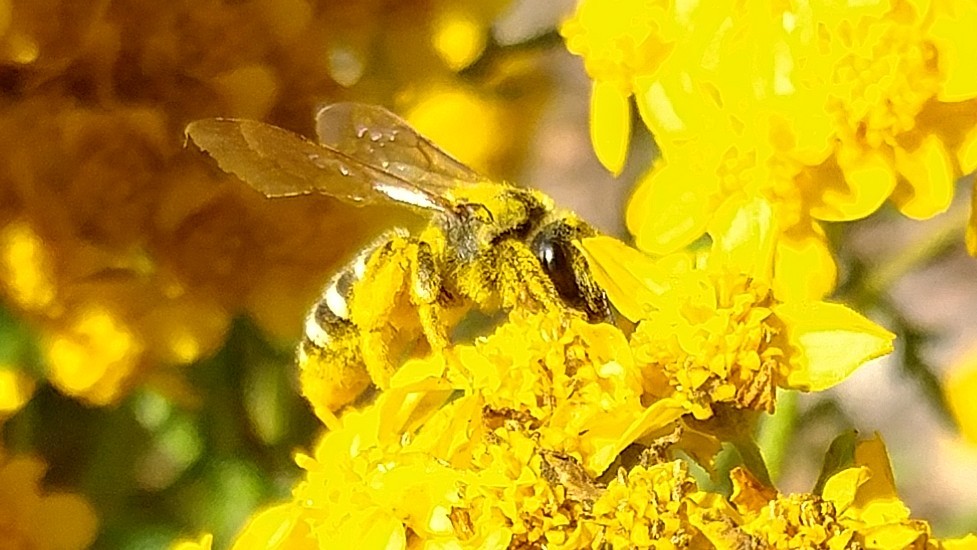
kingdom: Animalia
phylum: Arthropoda
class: Insecta
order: Hymenoptera
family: Halictidae
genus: Halictus
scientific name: Halictus farinosus
